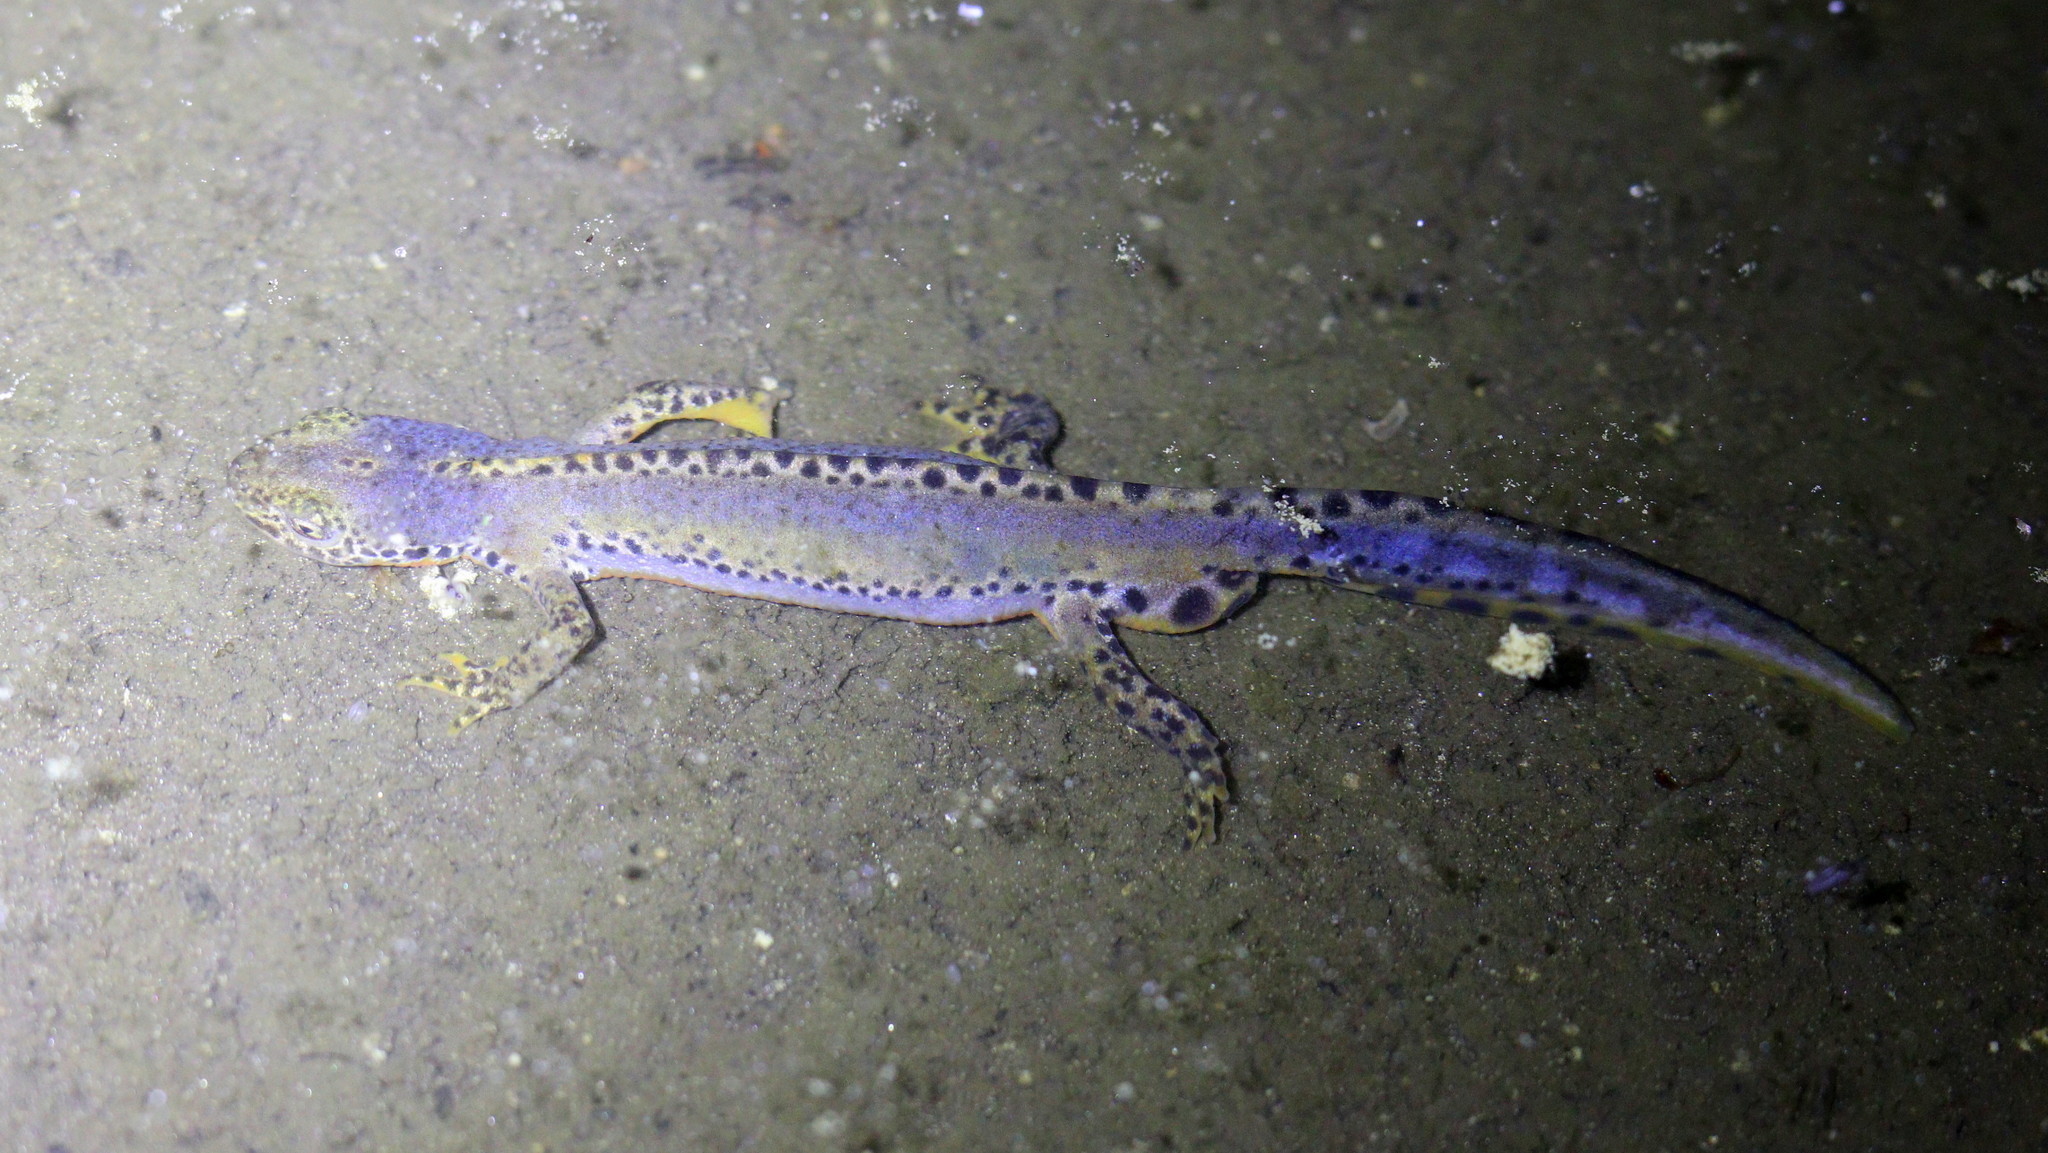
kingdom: Animalia
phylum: Chordata
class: Amphibia
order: Caudata
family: Salamandridae
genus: Ichthyosaura
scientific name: Ichthyosaura alpestris
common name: Alpine newt
